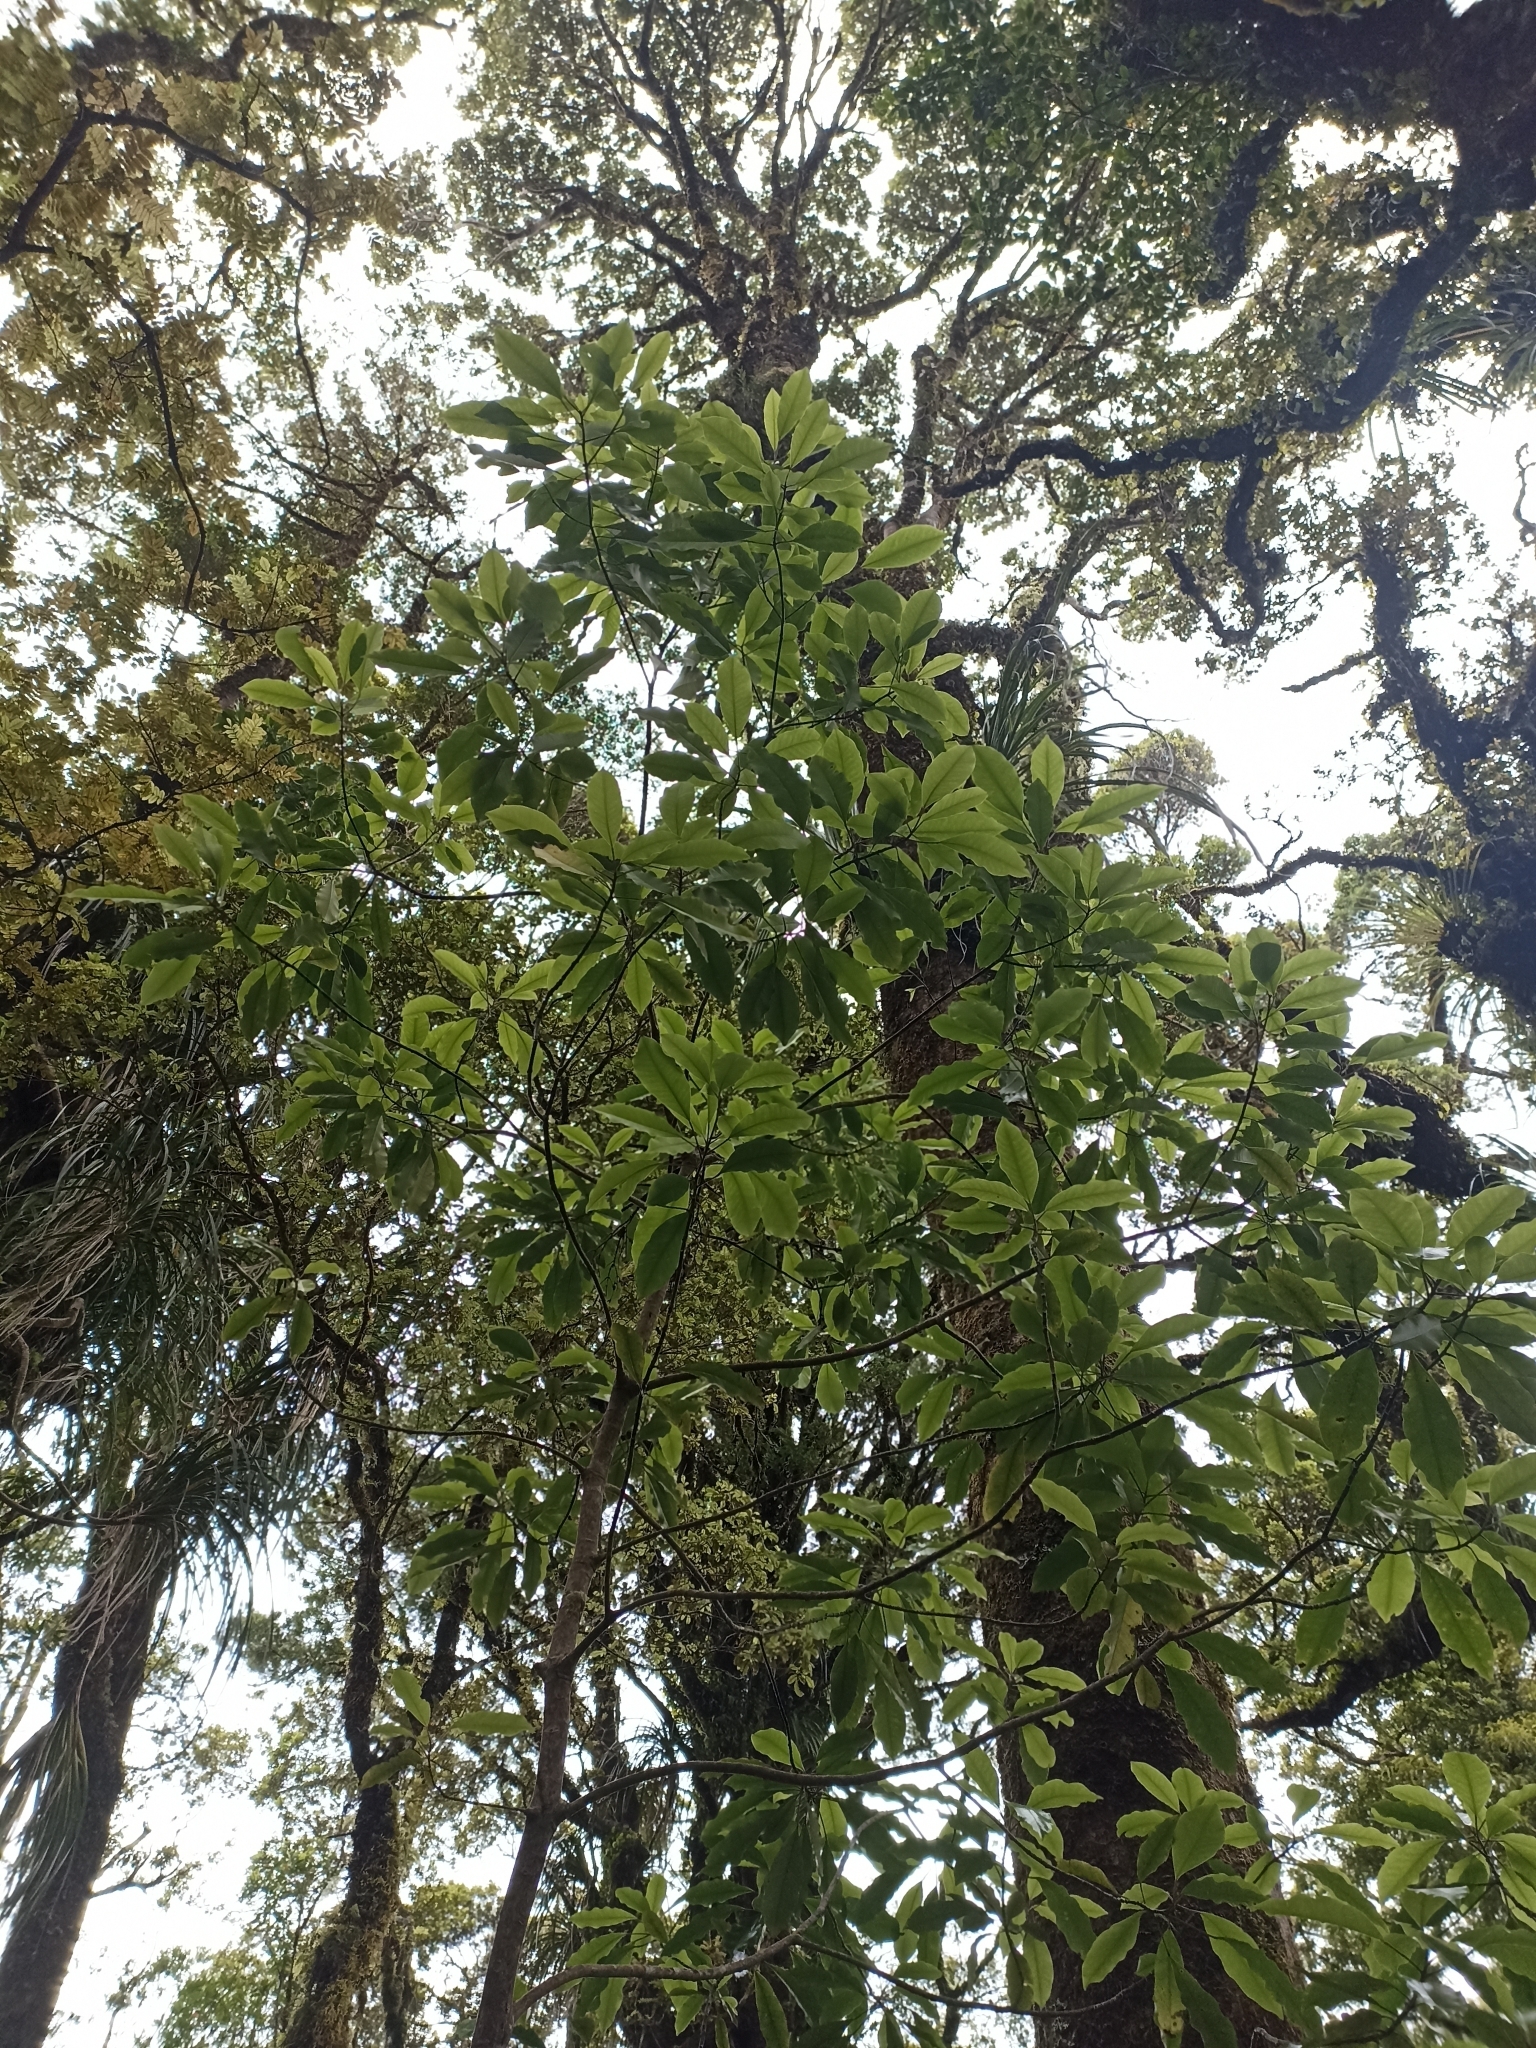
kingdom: Plantae
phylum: Tracheophyta
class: Magnoliopsida
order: Apiales
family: Araliaceae
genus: Raukaua
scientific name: Raukaua edgerleyi
